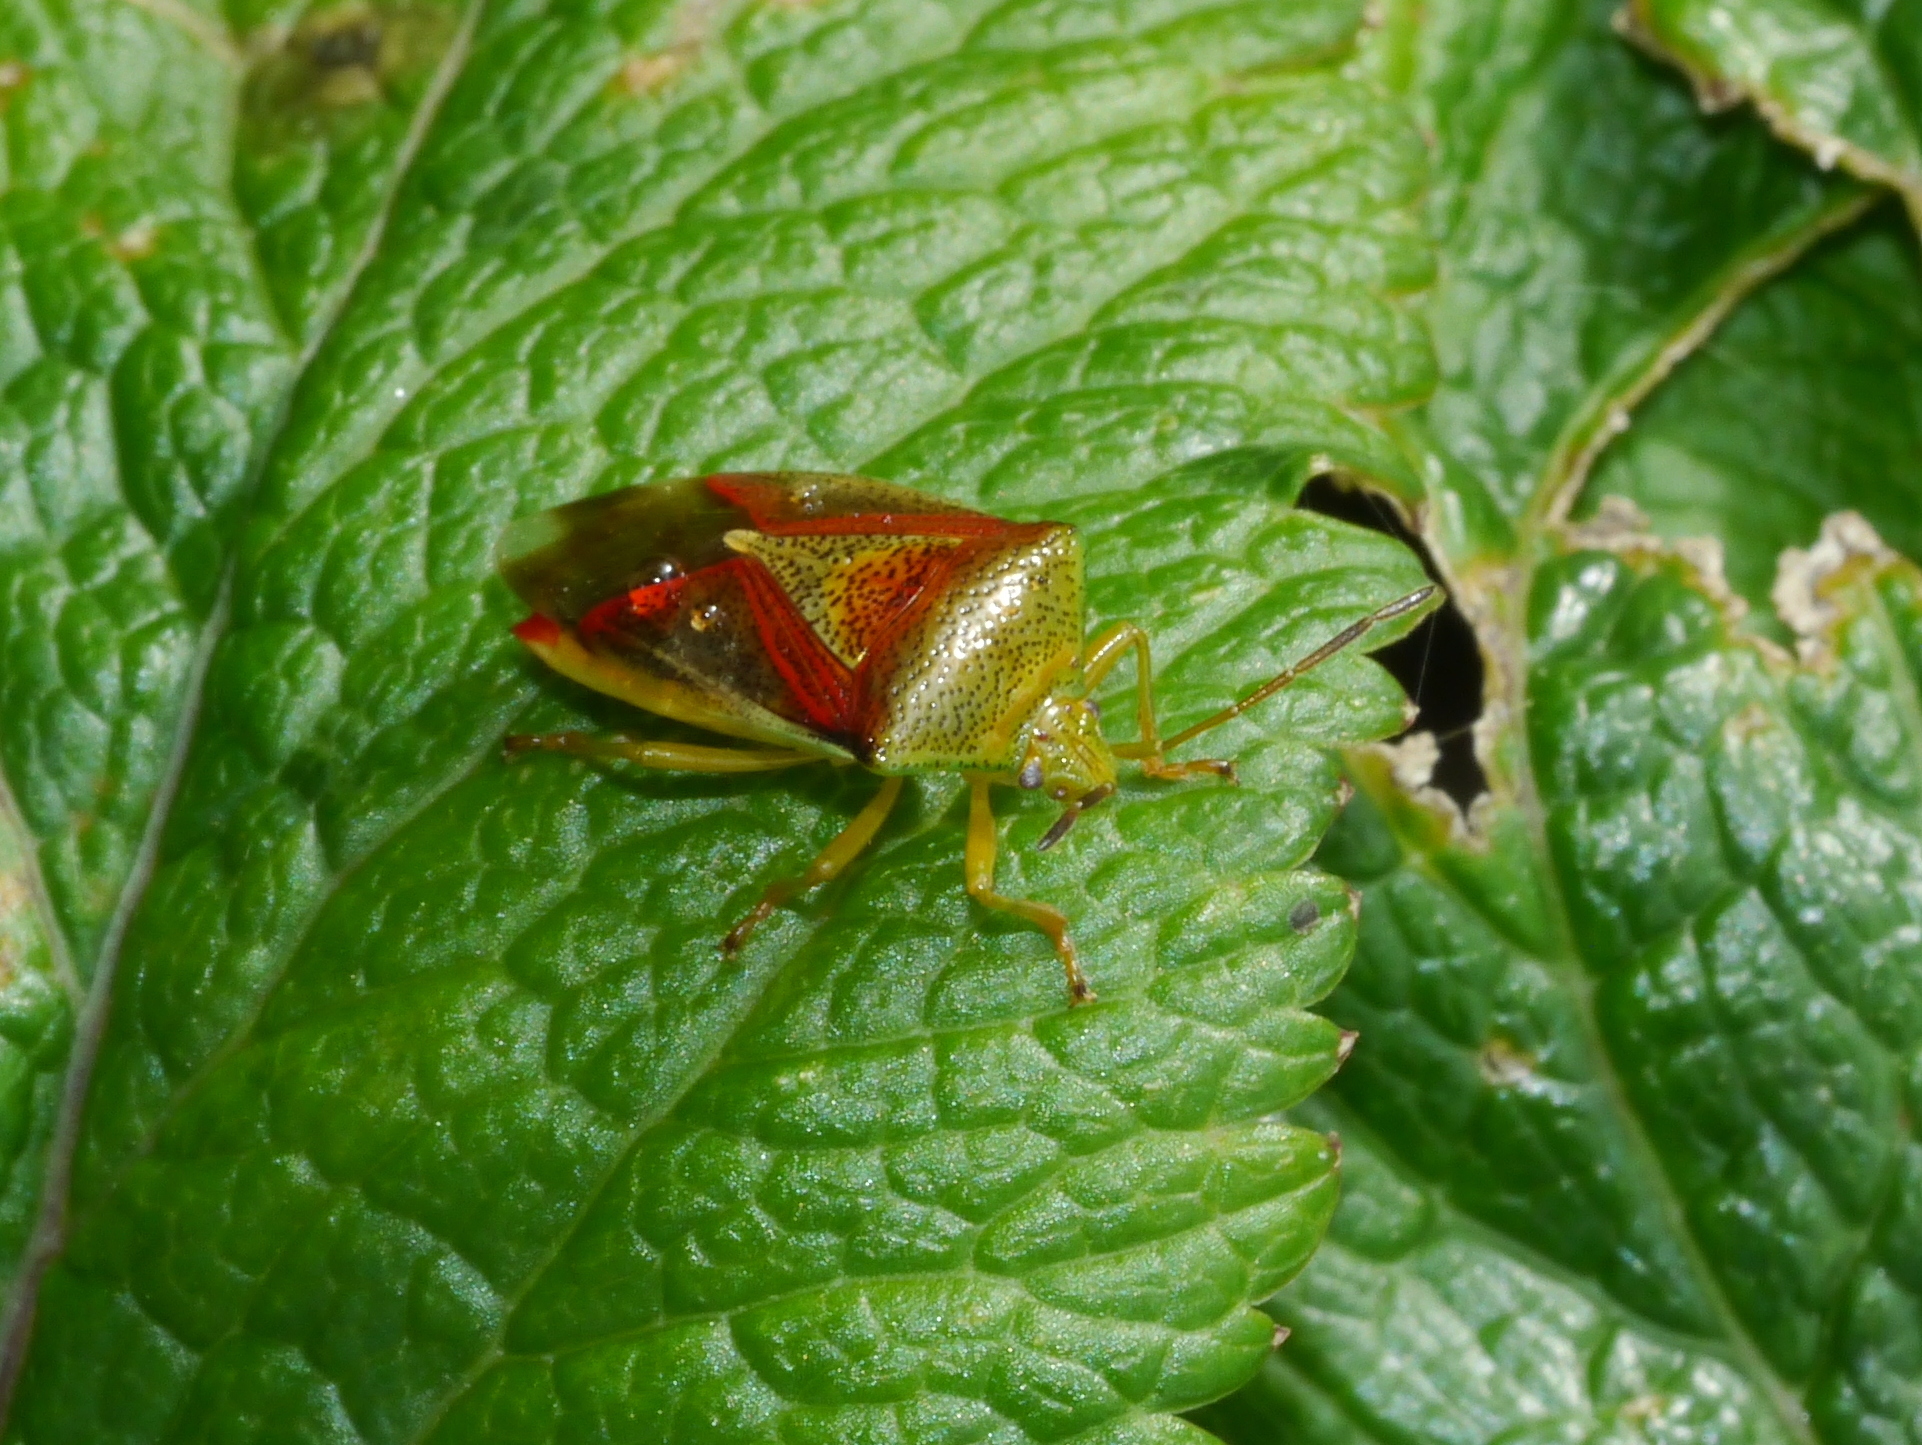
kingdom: Animalia
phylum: Arthropoda
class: Insecta
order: Hemiptera
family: Acanthosomatidae
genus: Elasmostethus
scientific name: Elasmostethus interstinctus
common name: Birch shieldbug
